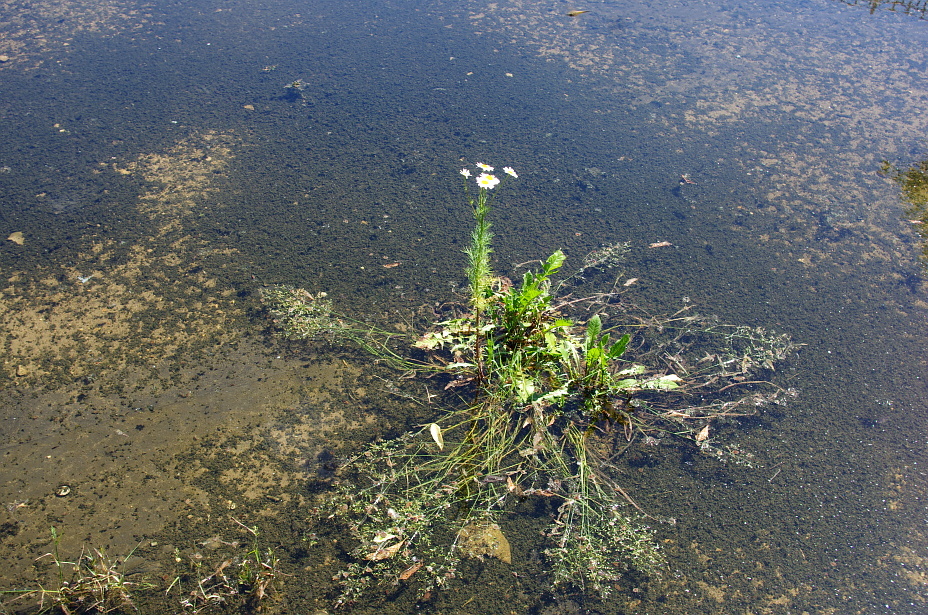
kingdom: Plantae
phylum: Tracheophyta
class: Magnoliopsida
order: Asterales
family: Asteraceae
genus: Taraxacum
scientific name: Taraxacum officinale
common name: Common dandelion
